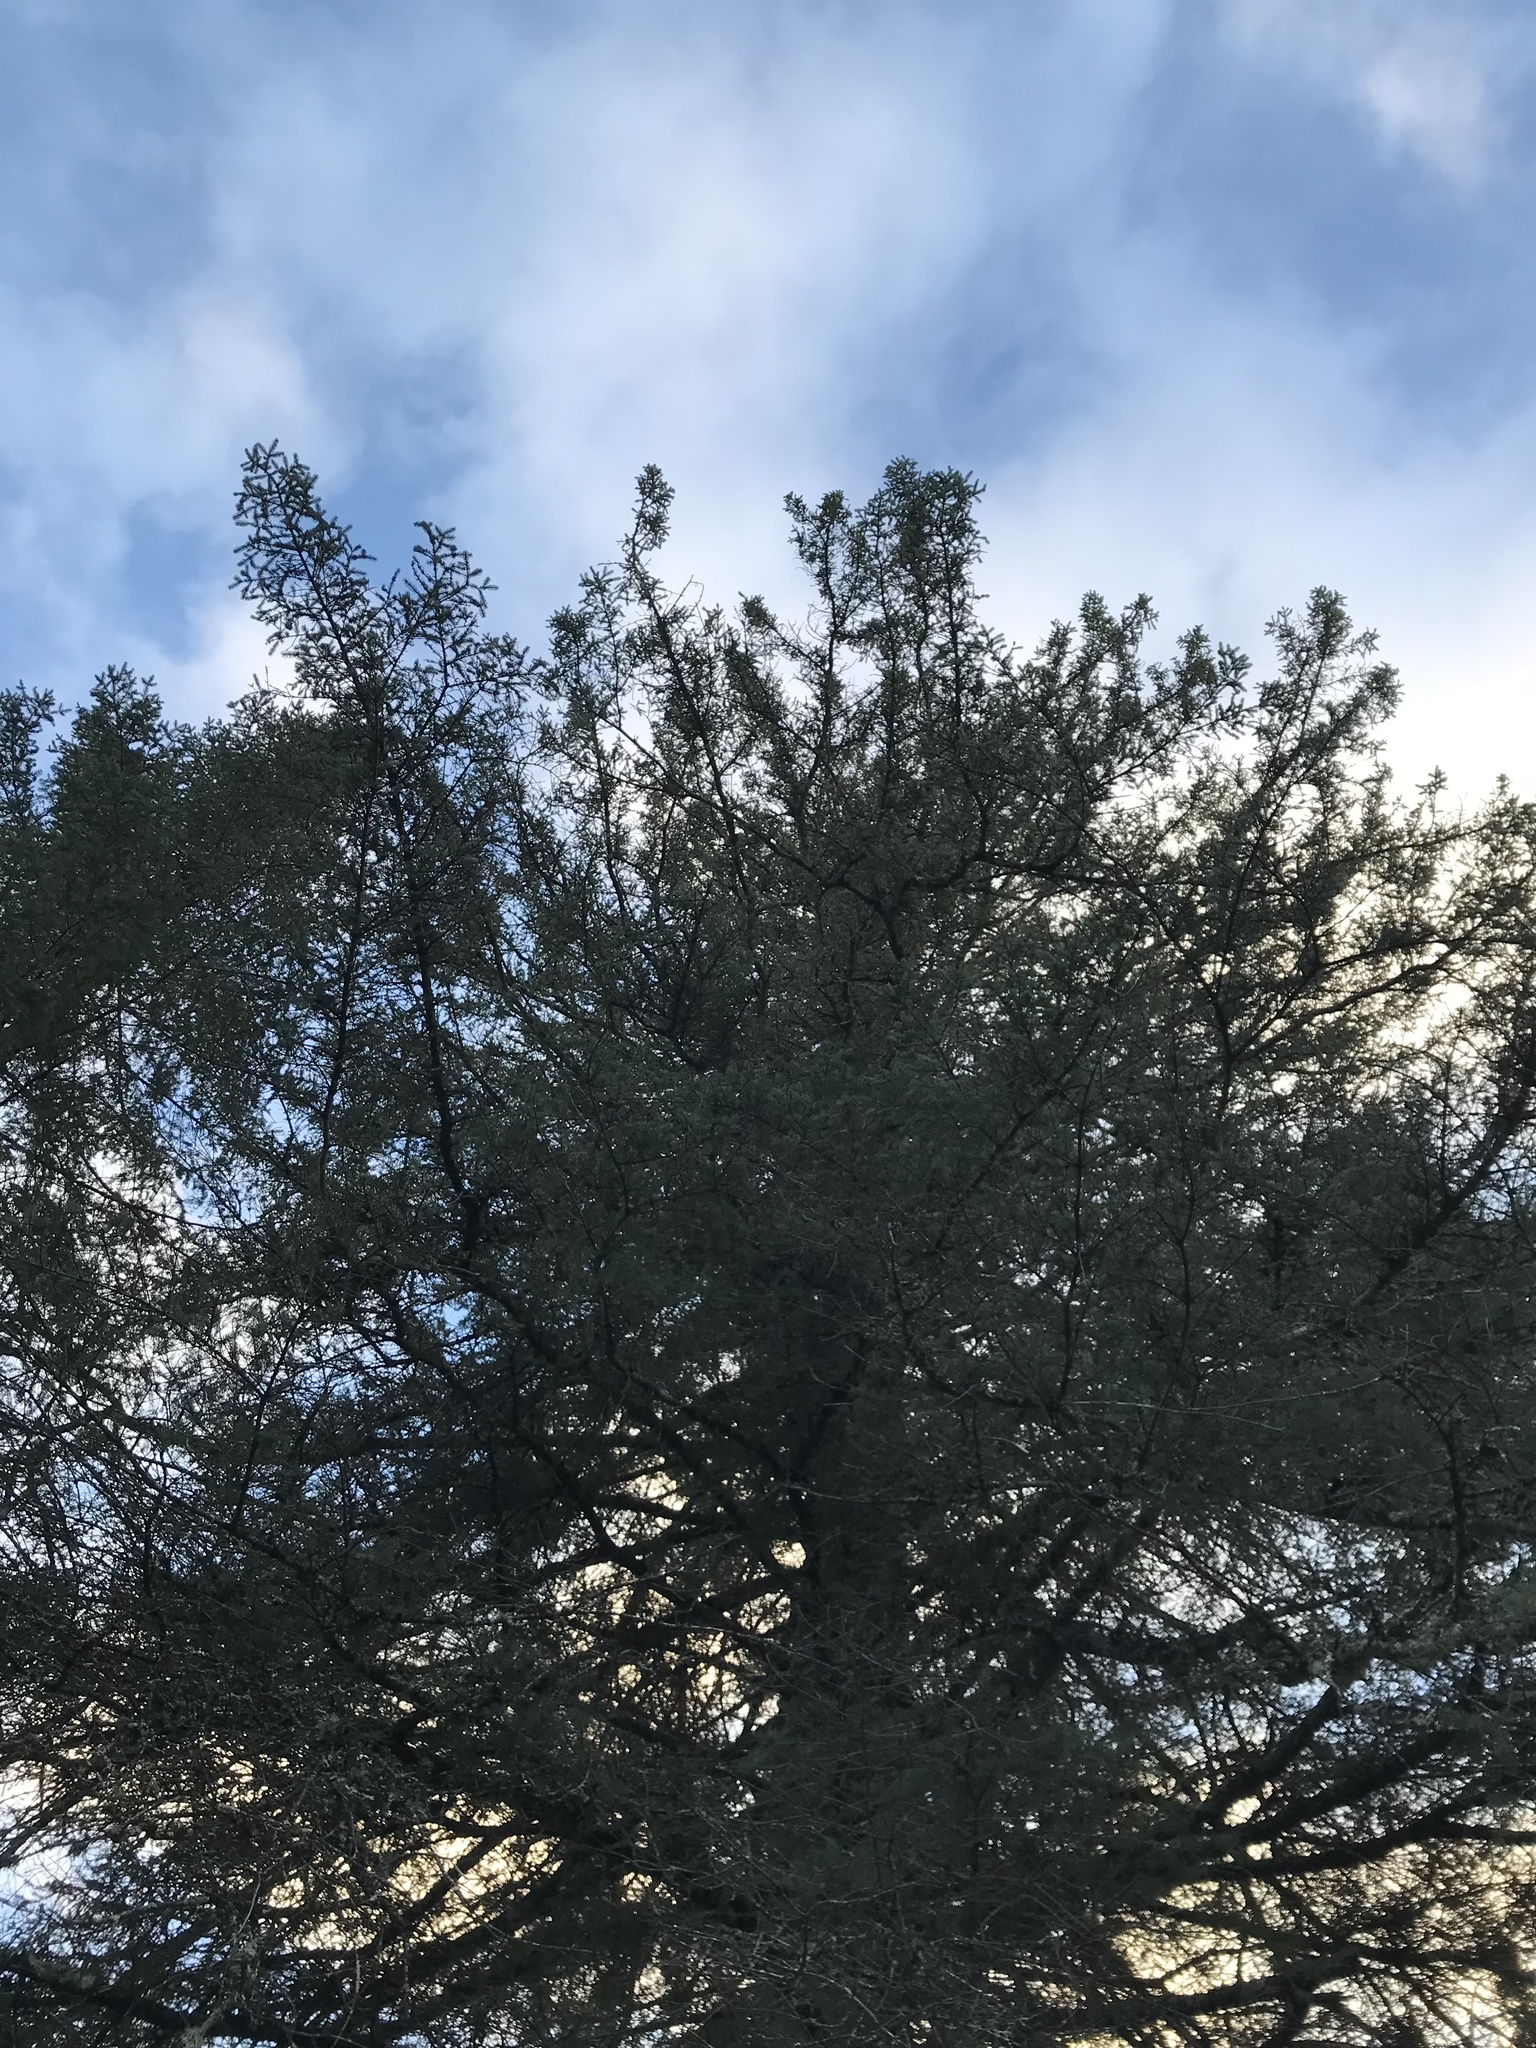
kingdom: Plantae
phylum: Tracheophyta
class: Pinopsida
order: Pinales
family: Pinaceae
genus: Picea
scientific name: Picea glauca
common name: White spruce
